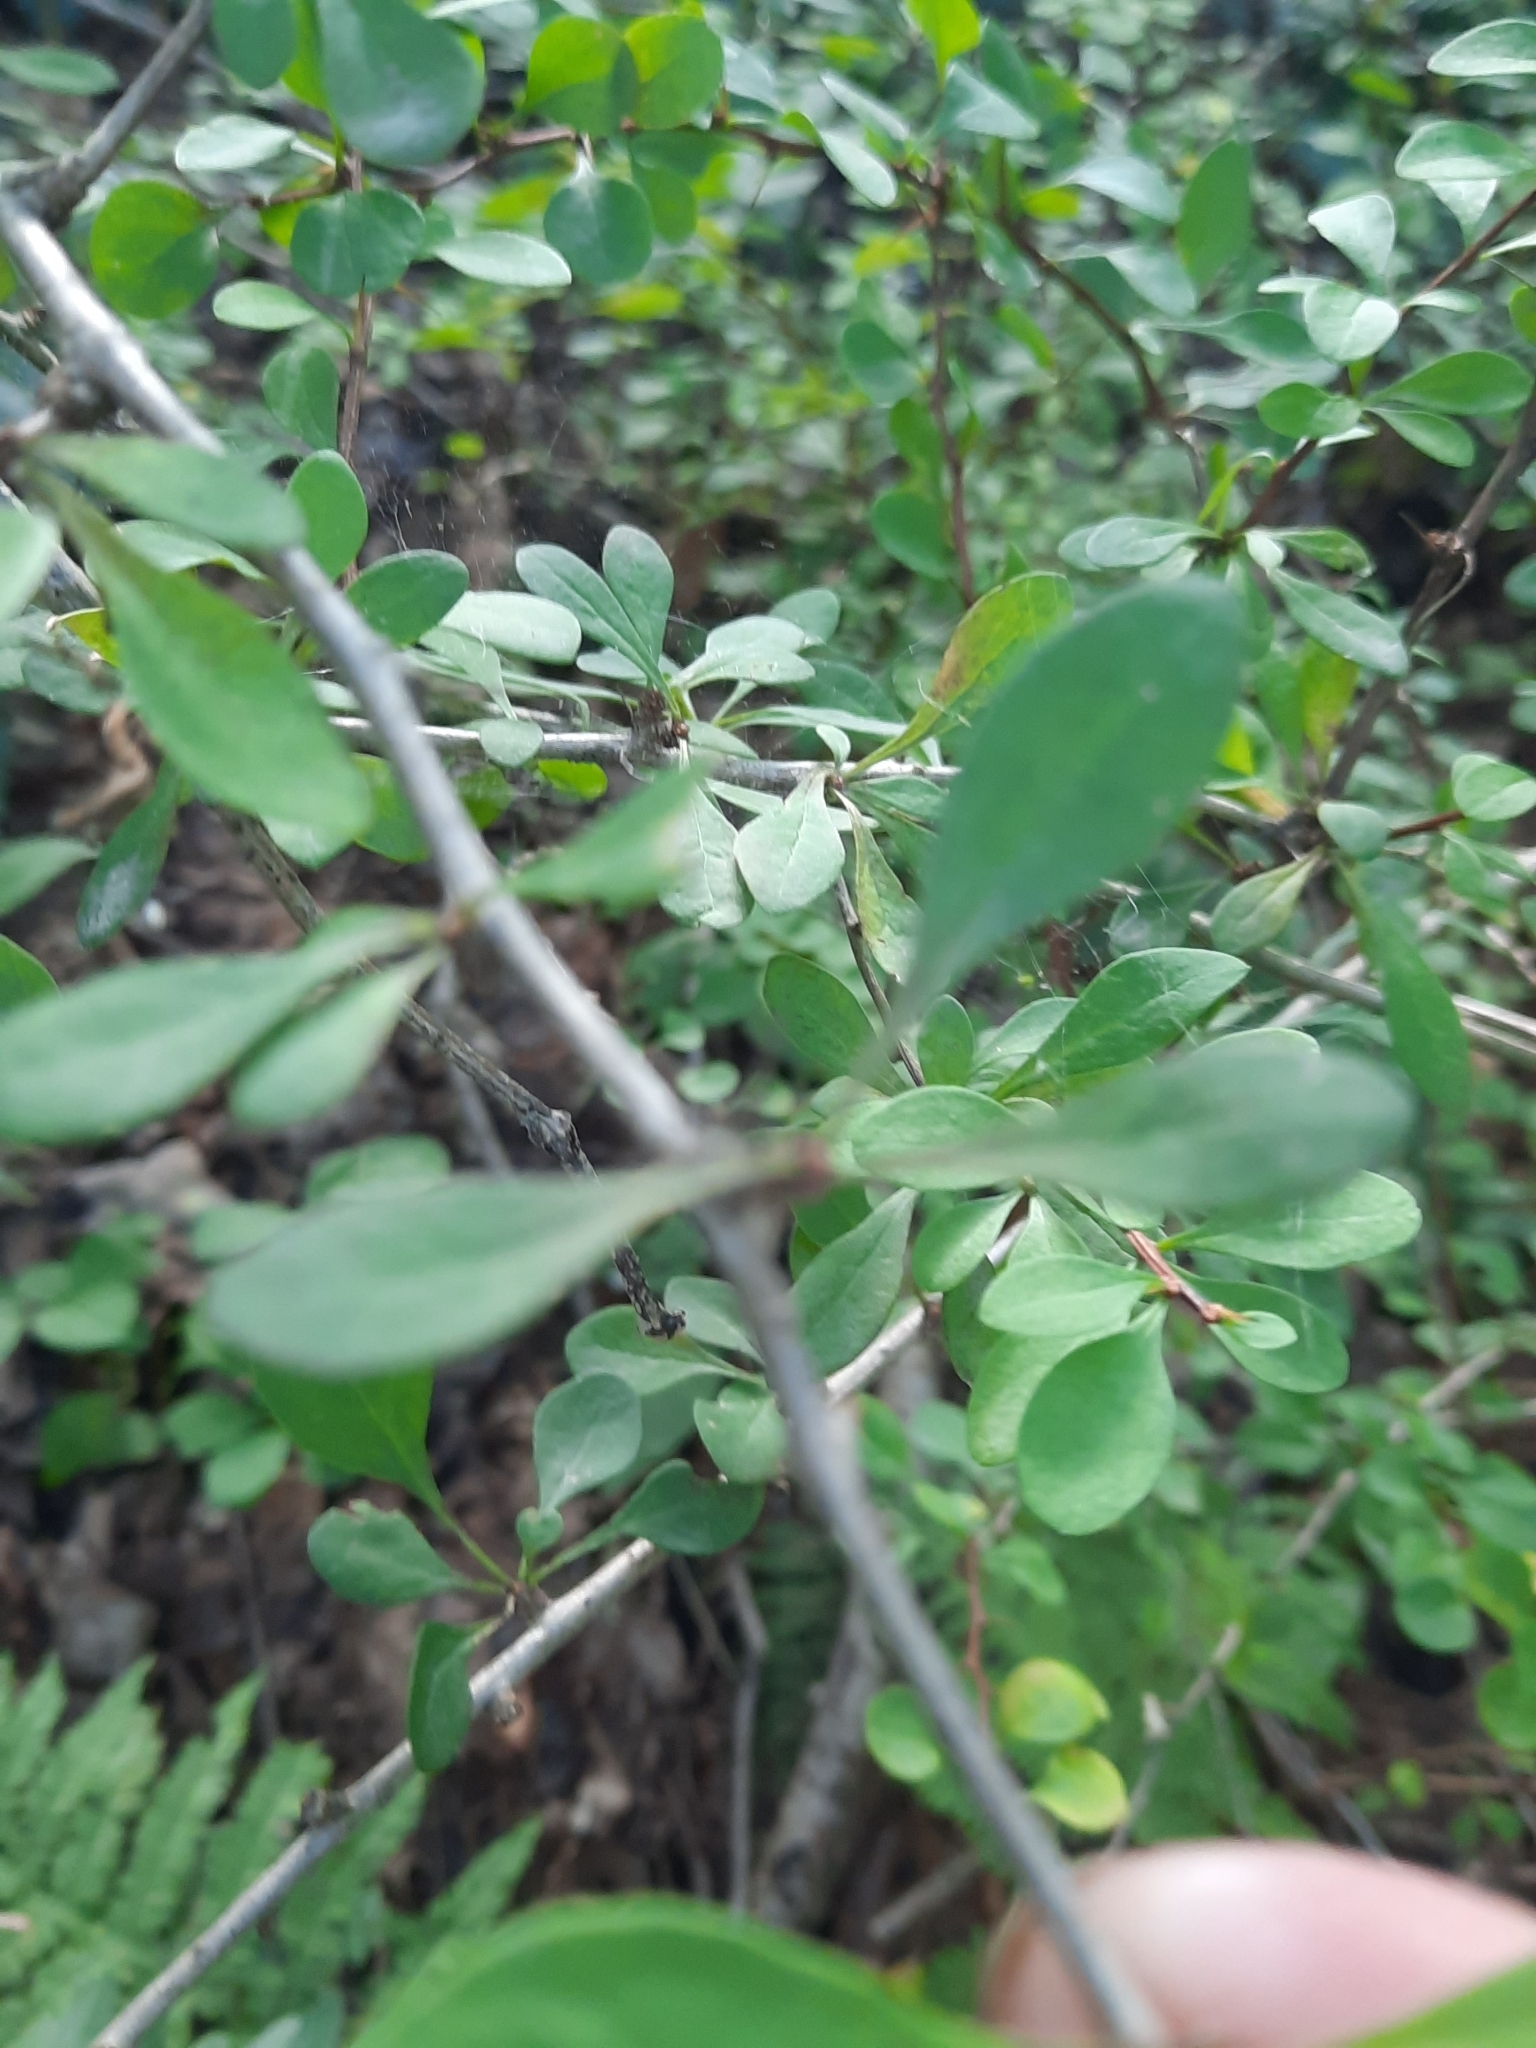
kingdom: Plantae
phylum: Tracheophyta
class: Magnoliopsida
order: Ranunculales
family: Berberidaceae
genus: Berberis
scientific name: Berberis thunbergii
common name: Japanese barberry
